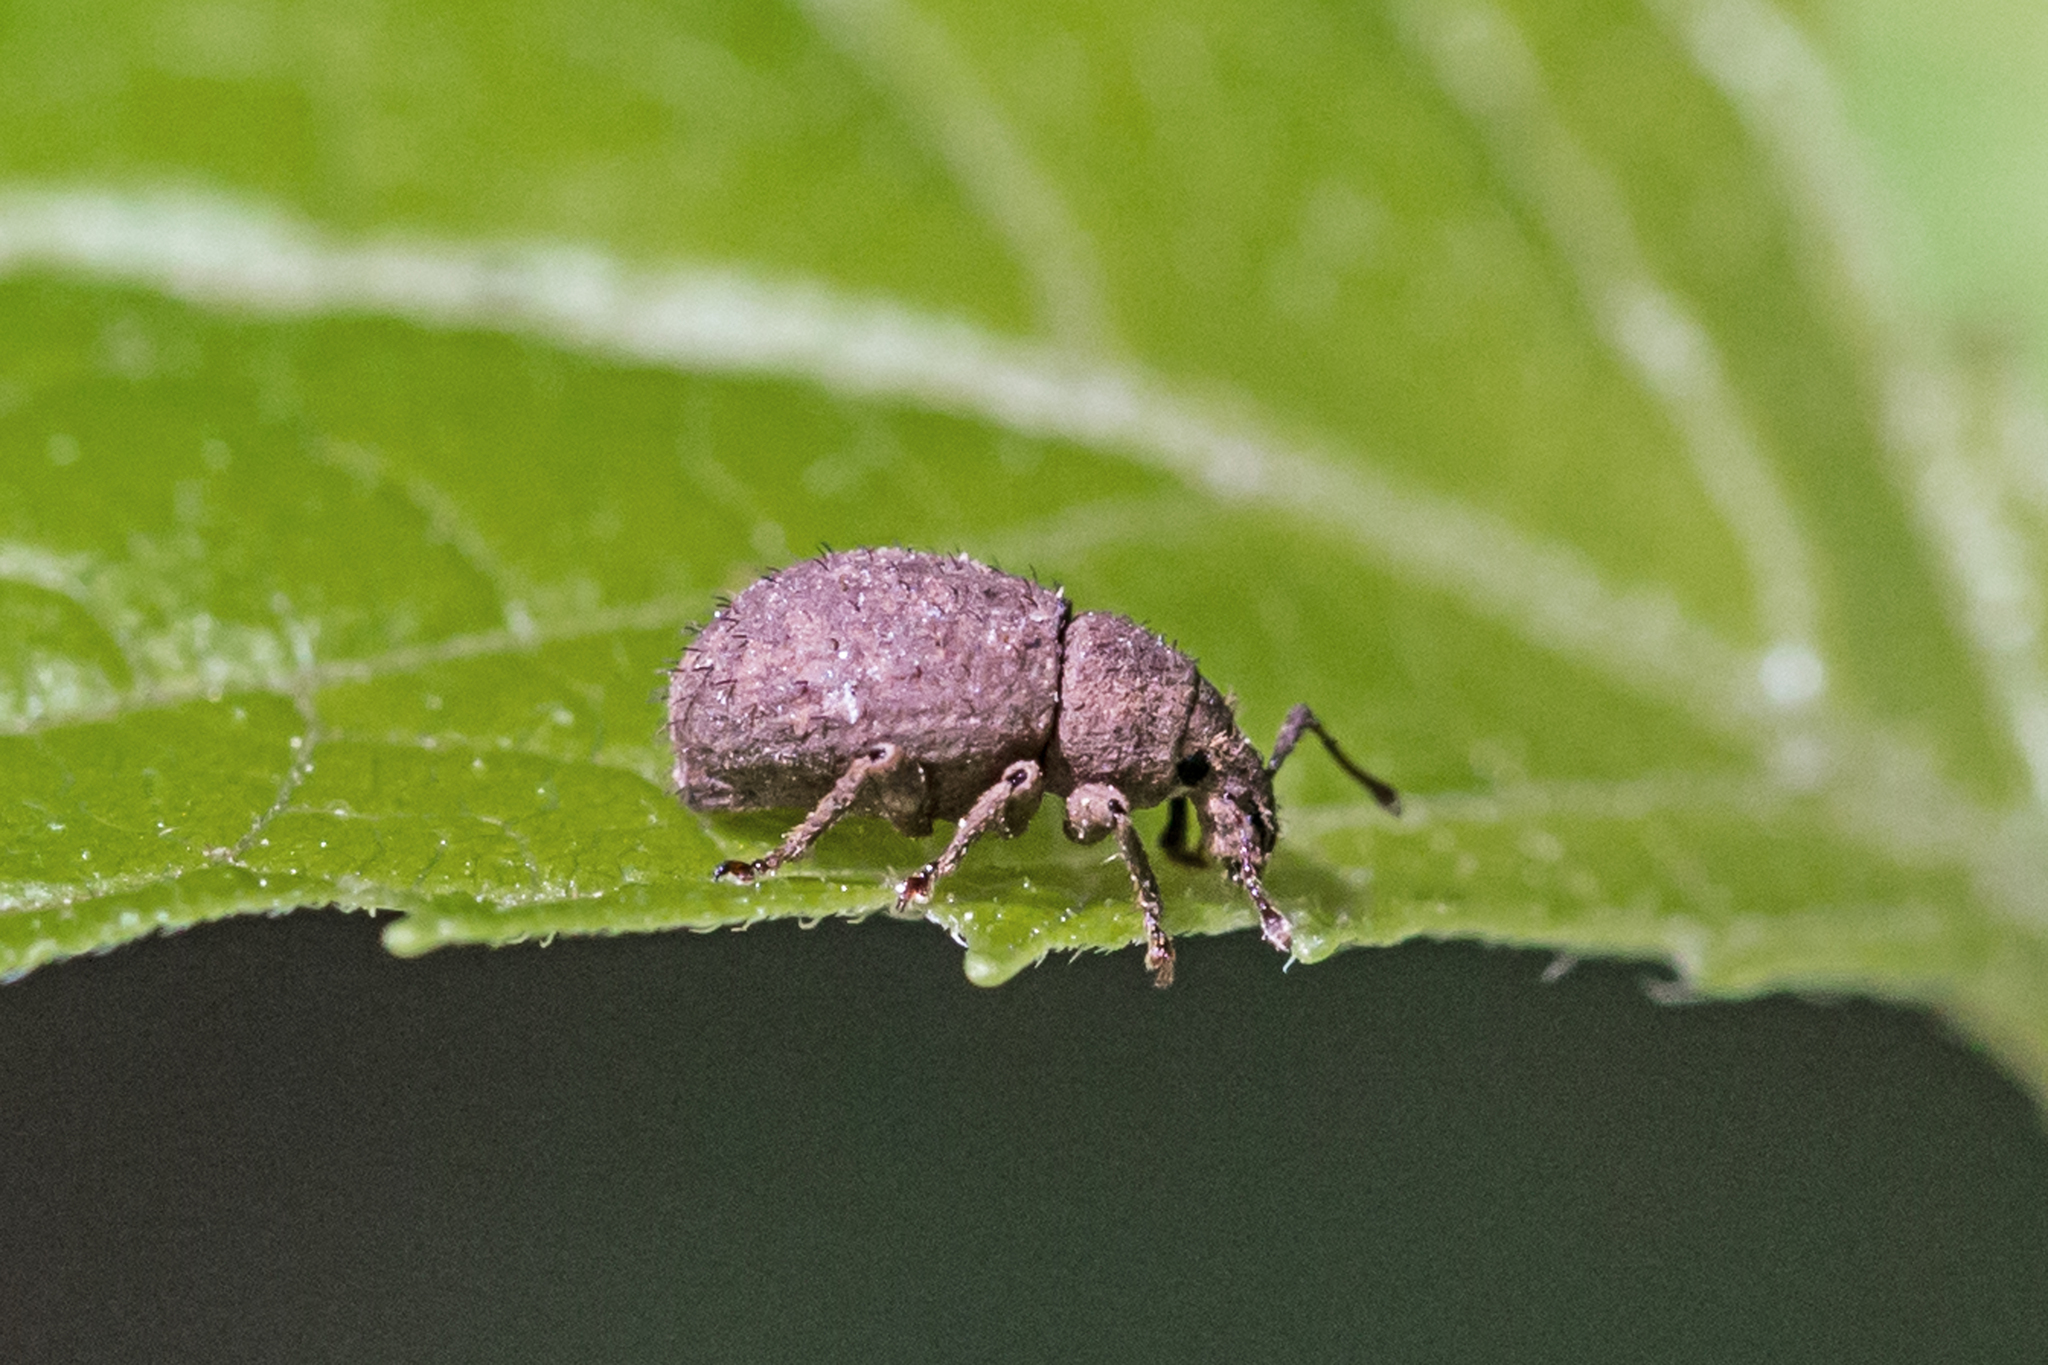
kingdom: Animalia
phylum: Arthropoda
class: Insecta
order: Coleoptera
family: Curculionidae
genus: Phyxelis
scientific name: Phyxelis rigidus
